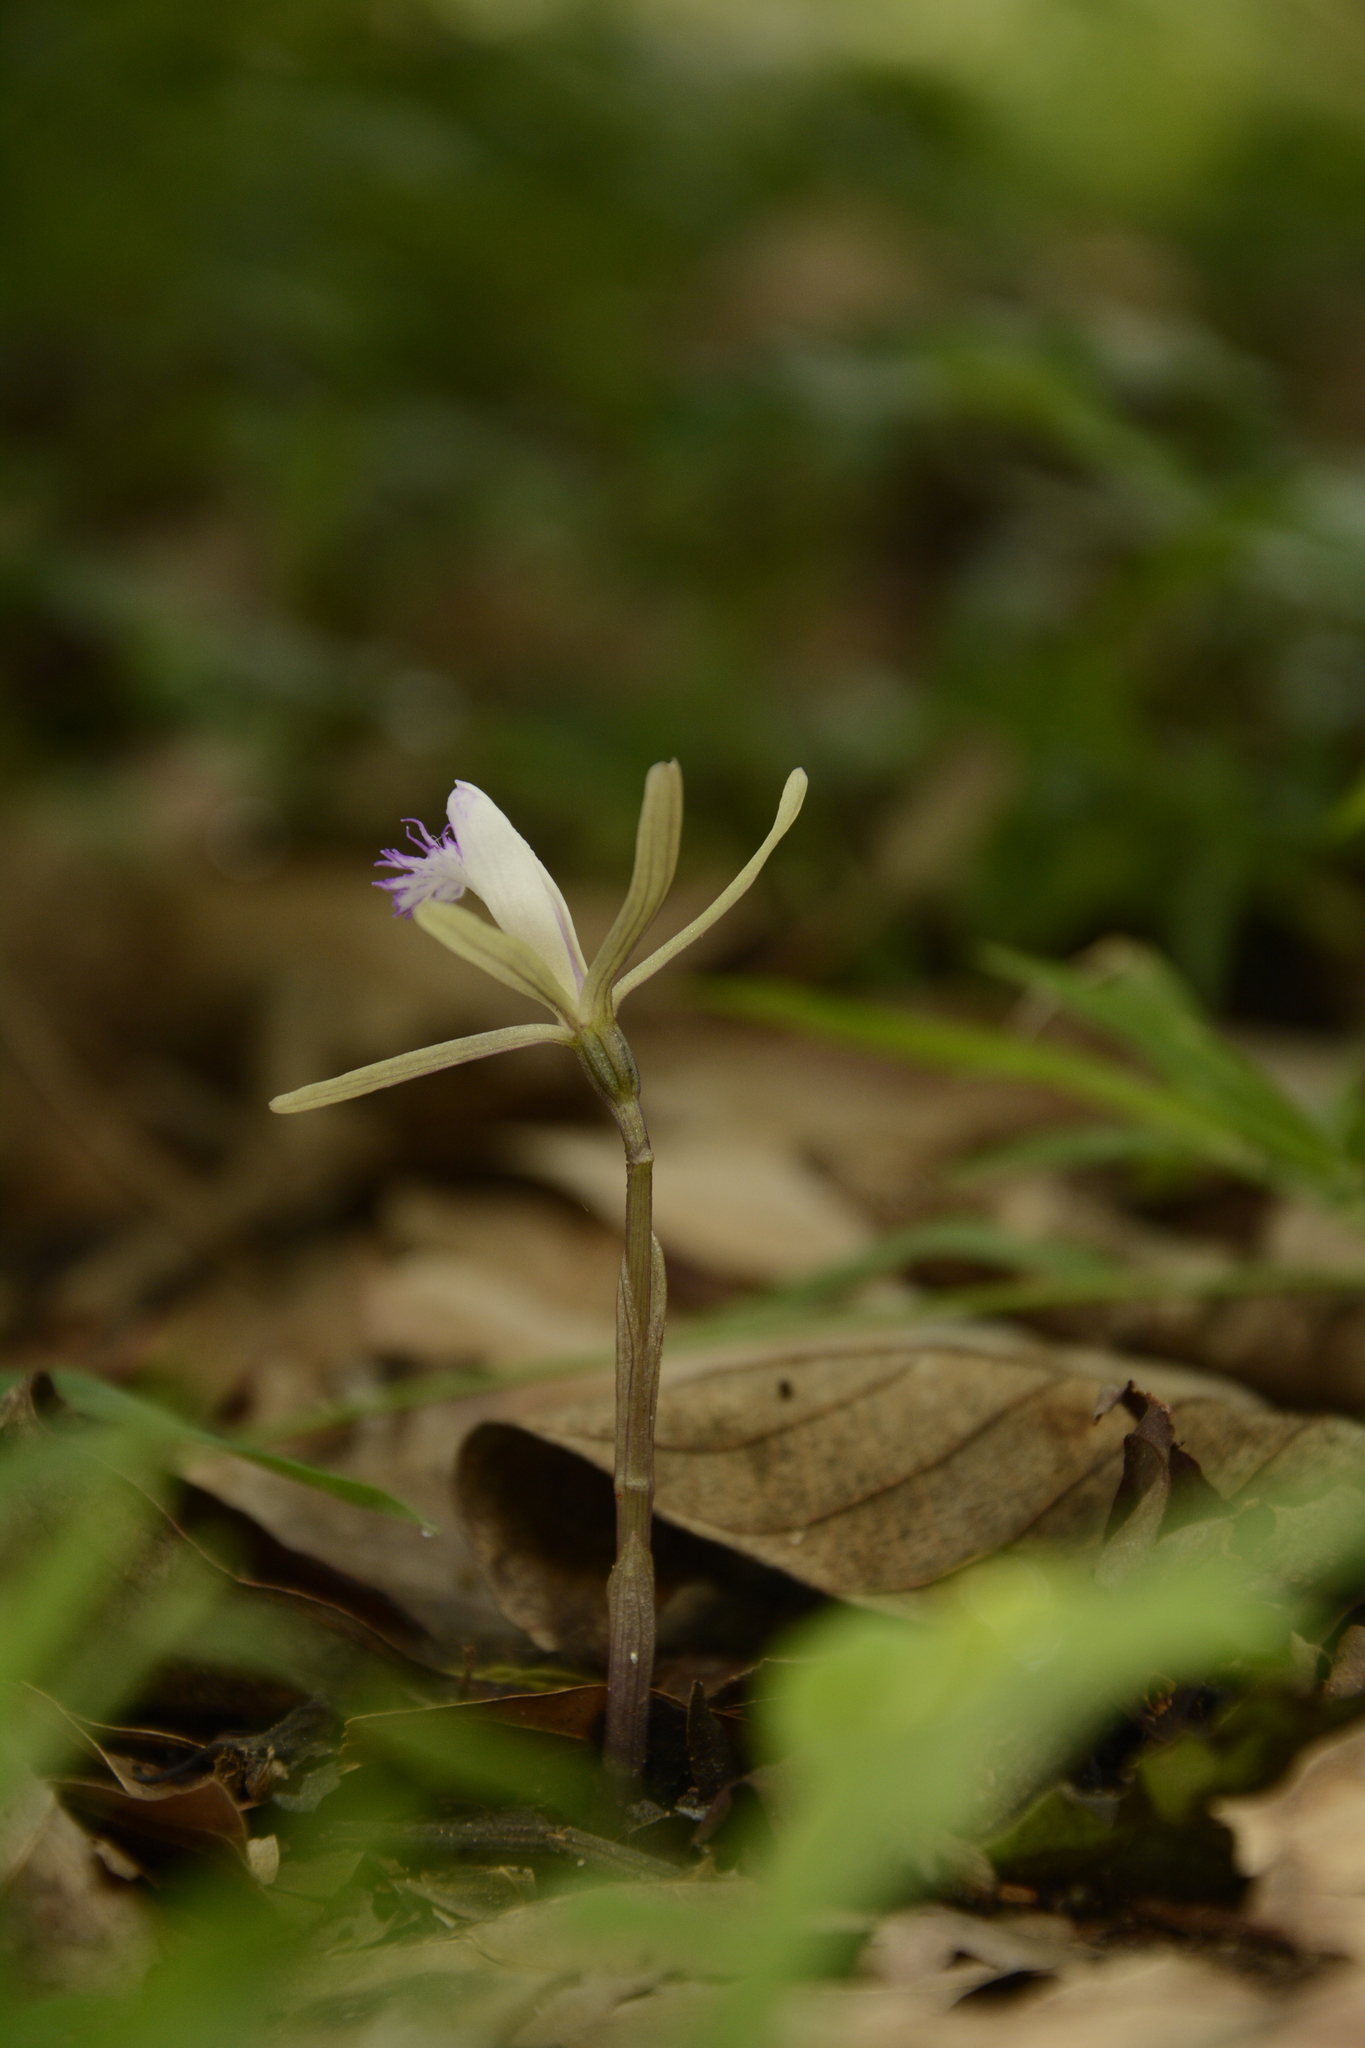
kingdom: Plantae
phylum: Tracheophyta
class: Liliopsida
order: Asparagales
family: Orchidaceae
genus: Nervilia
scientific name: Nervilia simplex
